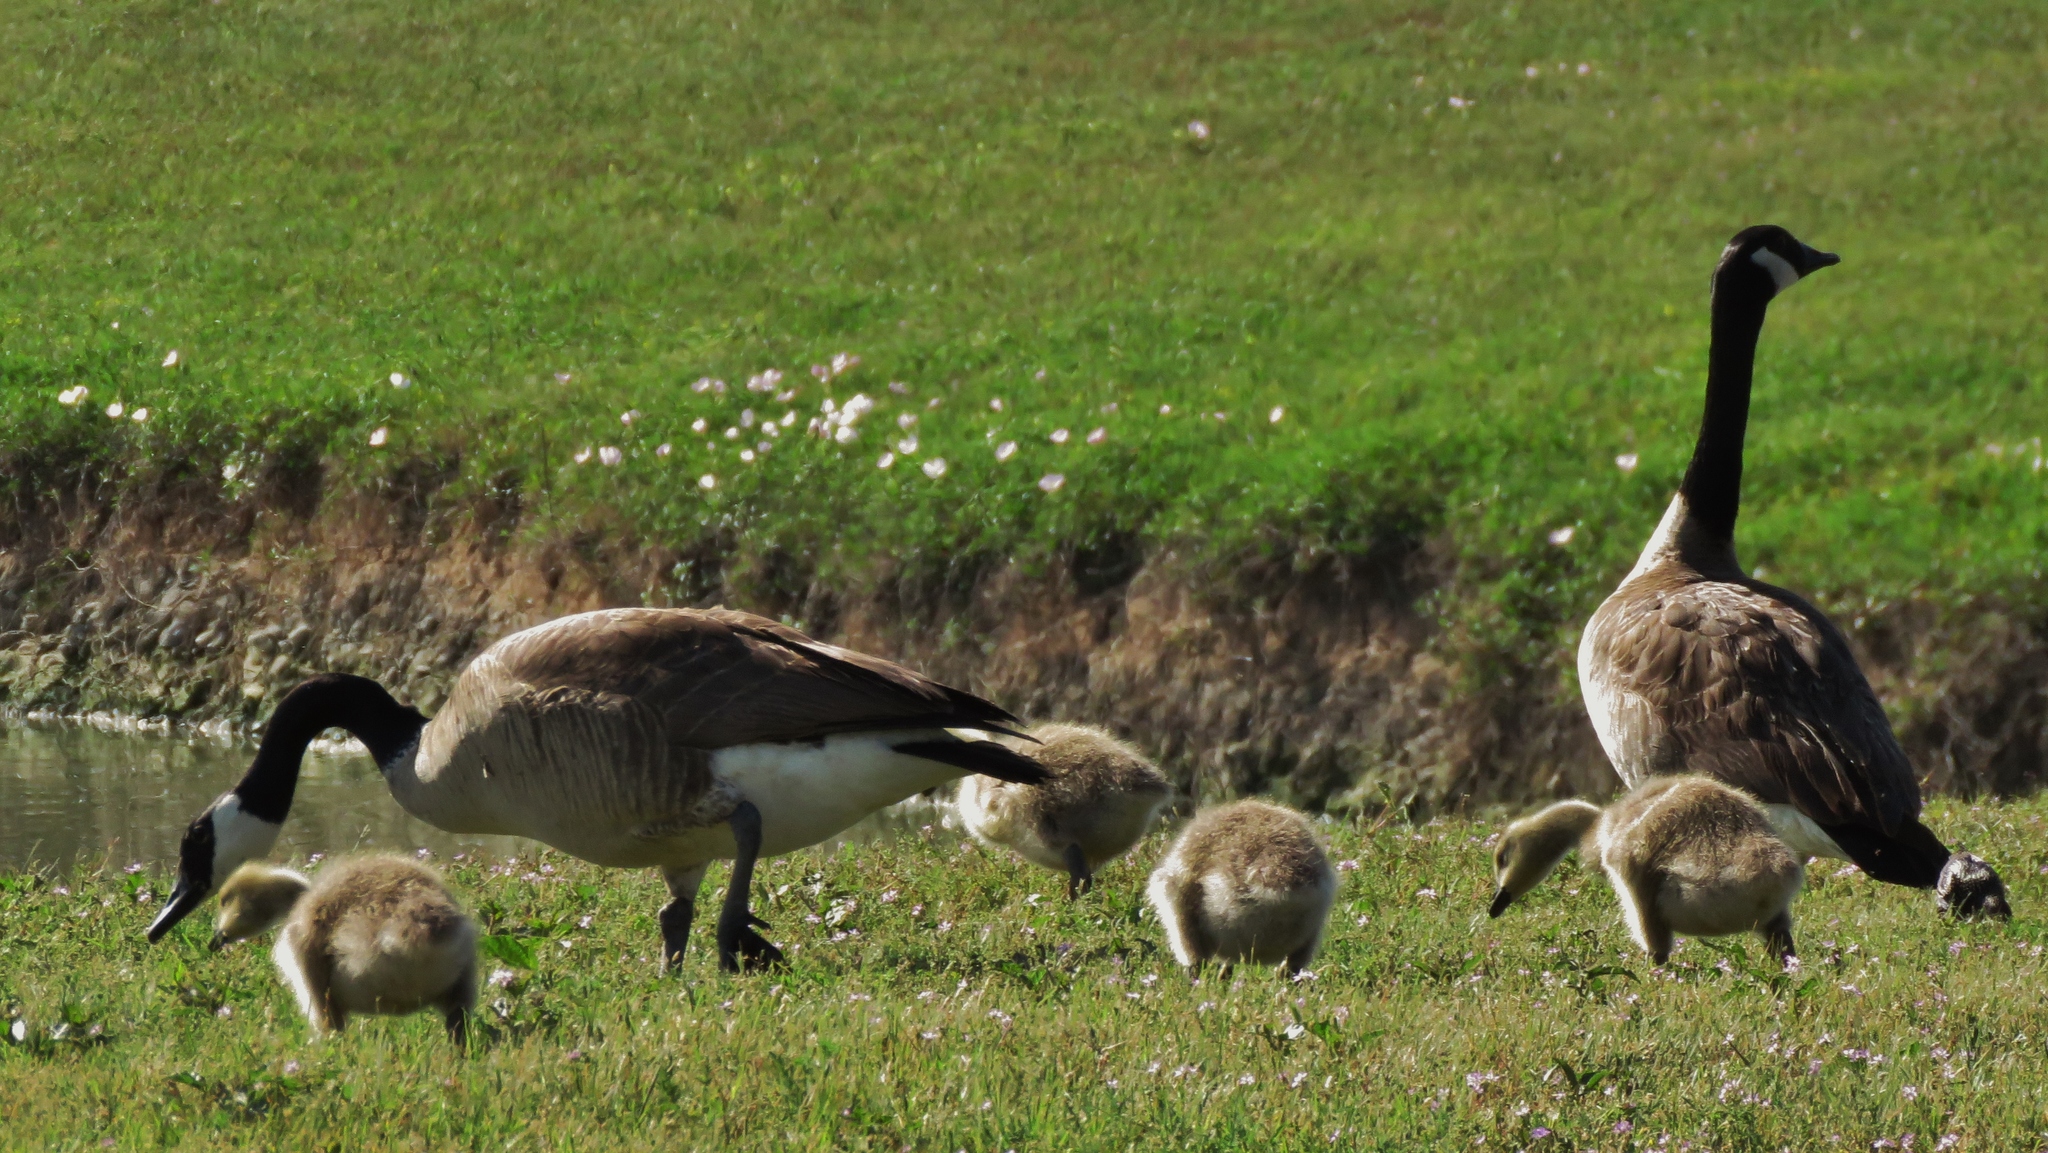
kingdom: Animalia
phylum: Chordata
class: Aves
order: Anseriformes
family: Anatidae
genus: Branta
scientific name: Branta canadensis
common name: Canada goose
